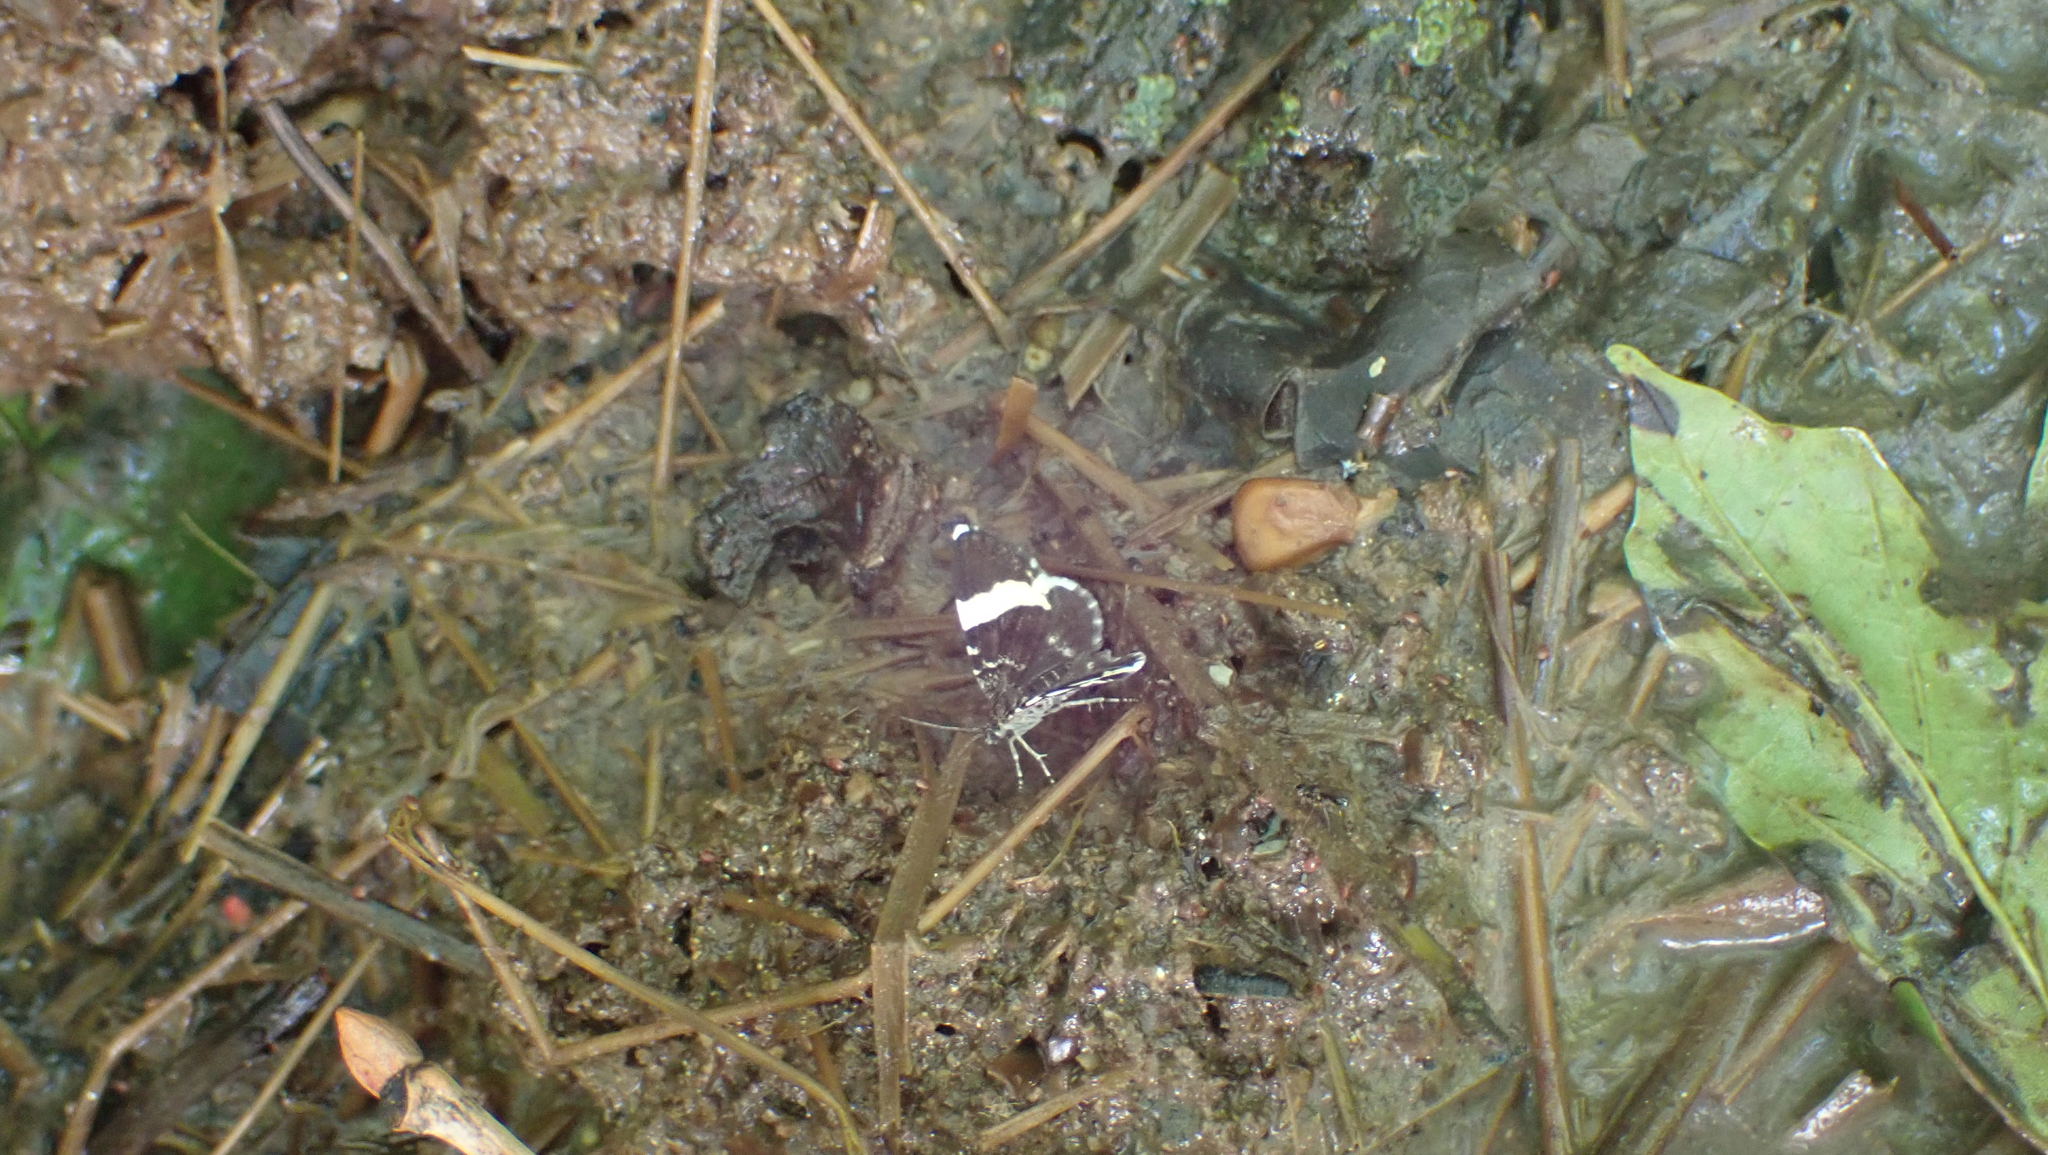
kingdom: Animalia
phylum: Arthropoda
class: Insecta
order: Lepidoptera
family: Geometridae
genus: Trichodezia
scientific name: Trichodezia albovittata
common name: White striped black
